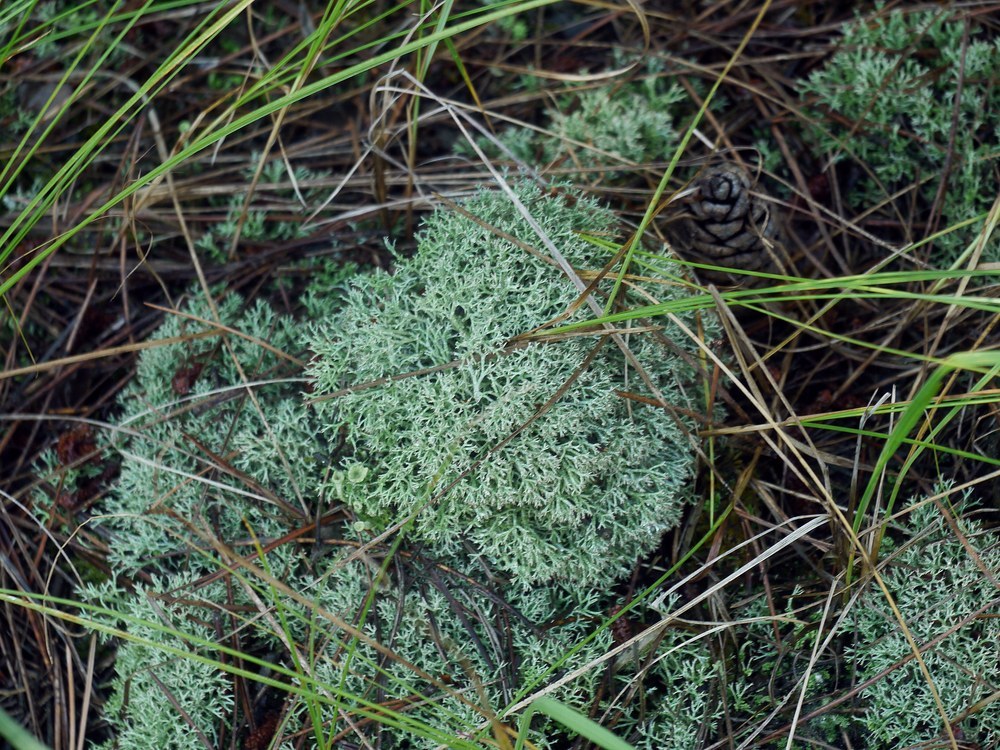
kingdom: Fungi
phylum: Ascomycota
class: Lecanoromycetes
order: Lecanorales
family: Cladoniaceae
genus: Cladonia
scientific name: Cladonia rangiformis
